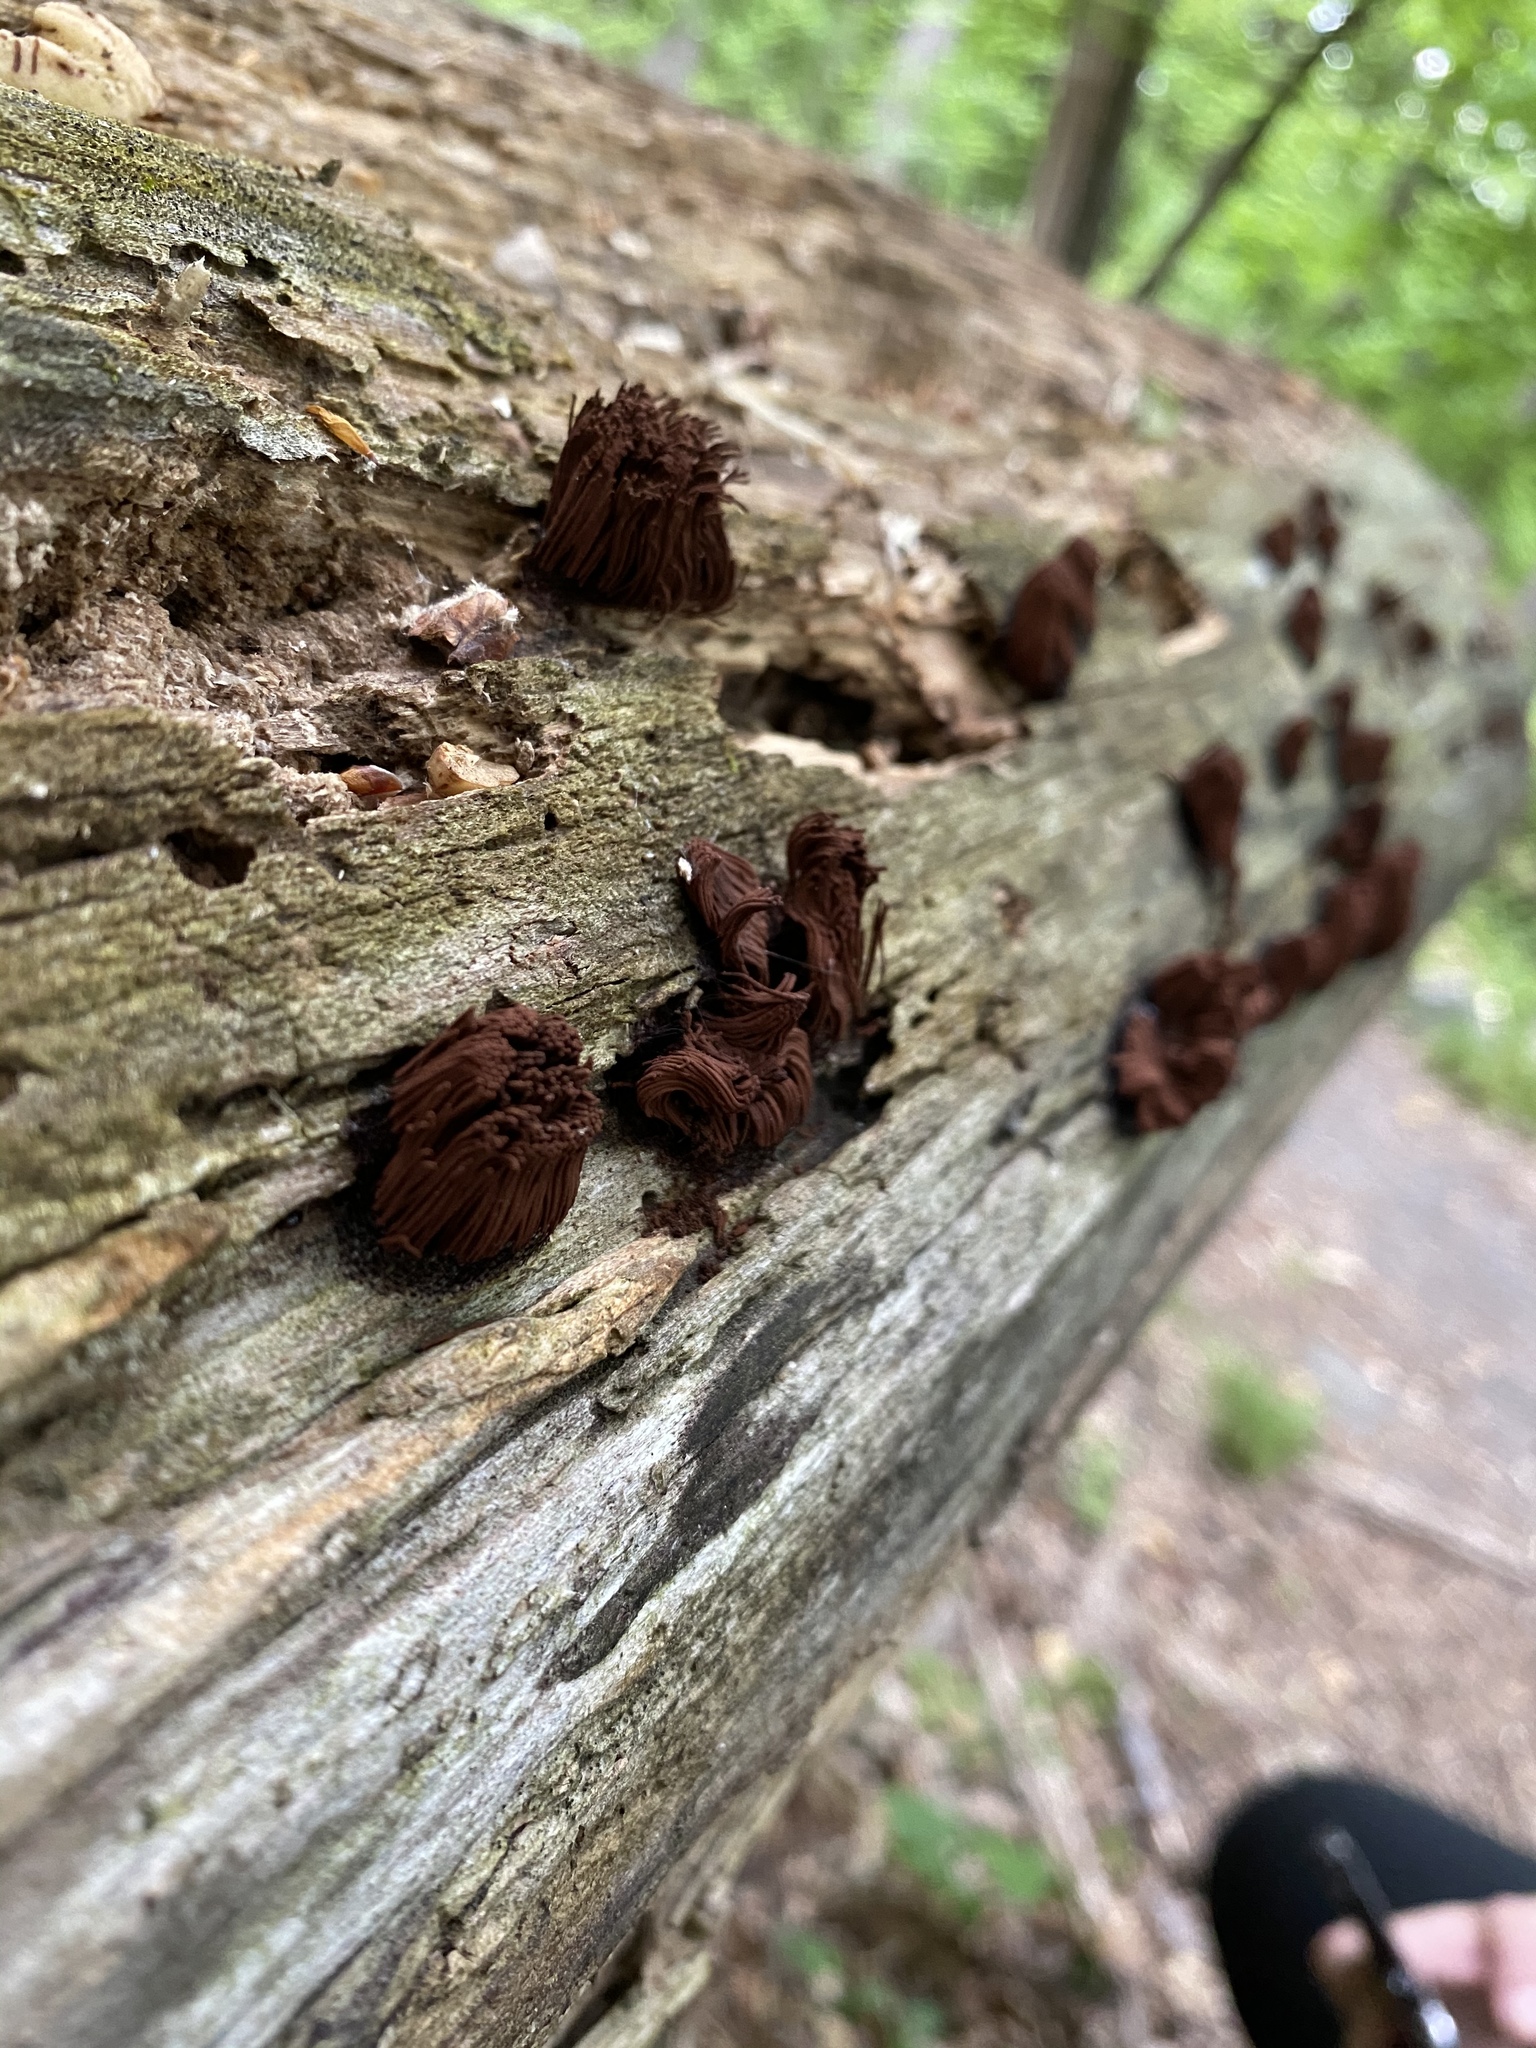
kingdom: Protozoa
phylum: Mycetozoa
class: Myxomycetes
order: Stemonitidales
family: Stemonitidaceae
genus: Stemonitis
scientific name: Stemonitis
